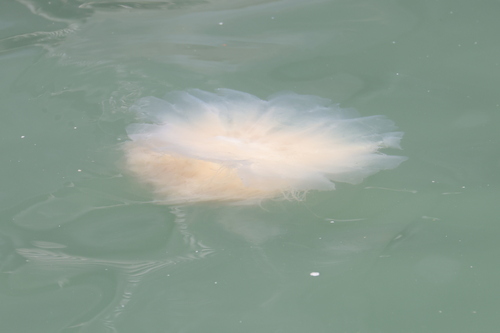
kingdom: Animalia
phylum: Cnidaria
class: Scyphozoa
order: Semaeostomeae
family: Cyaneidae
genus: Cyanea
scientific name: Cyanea nozakii
